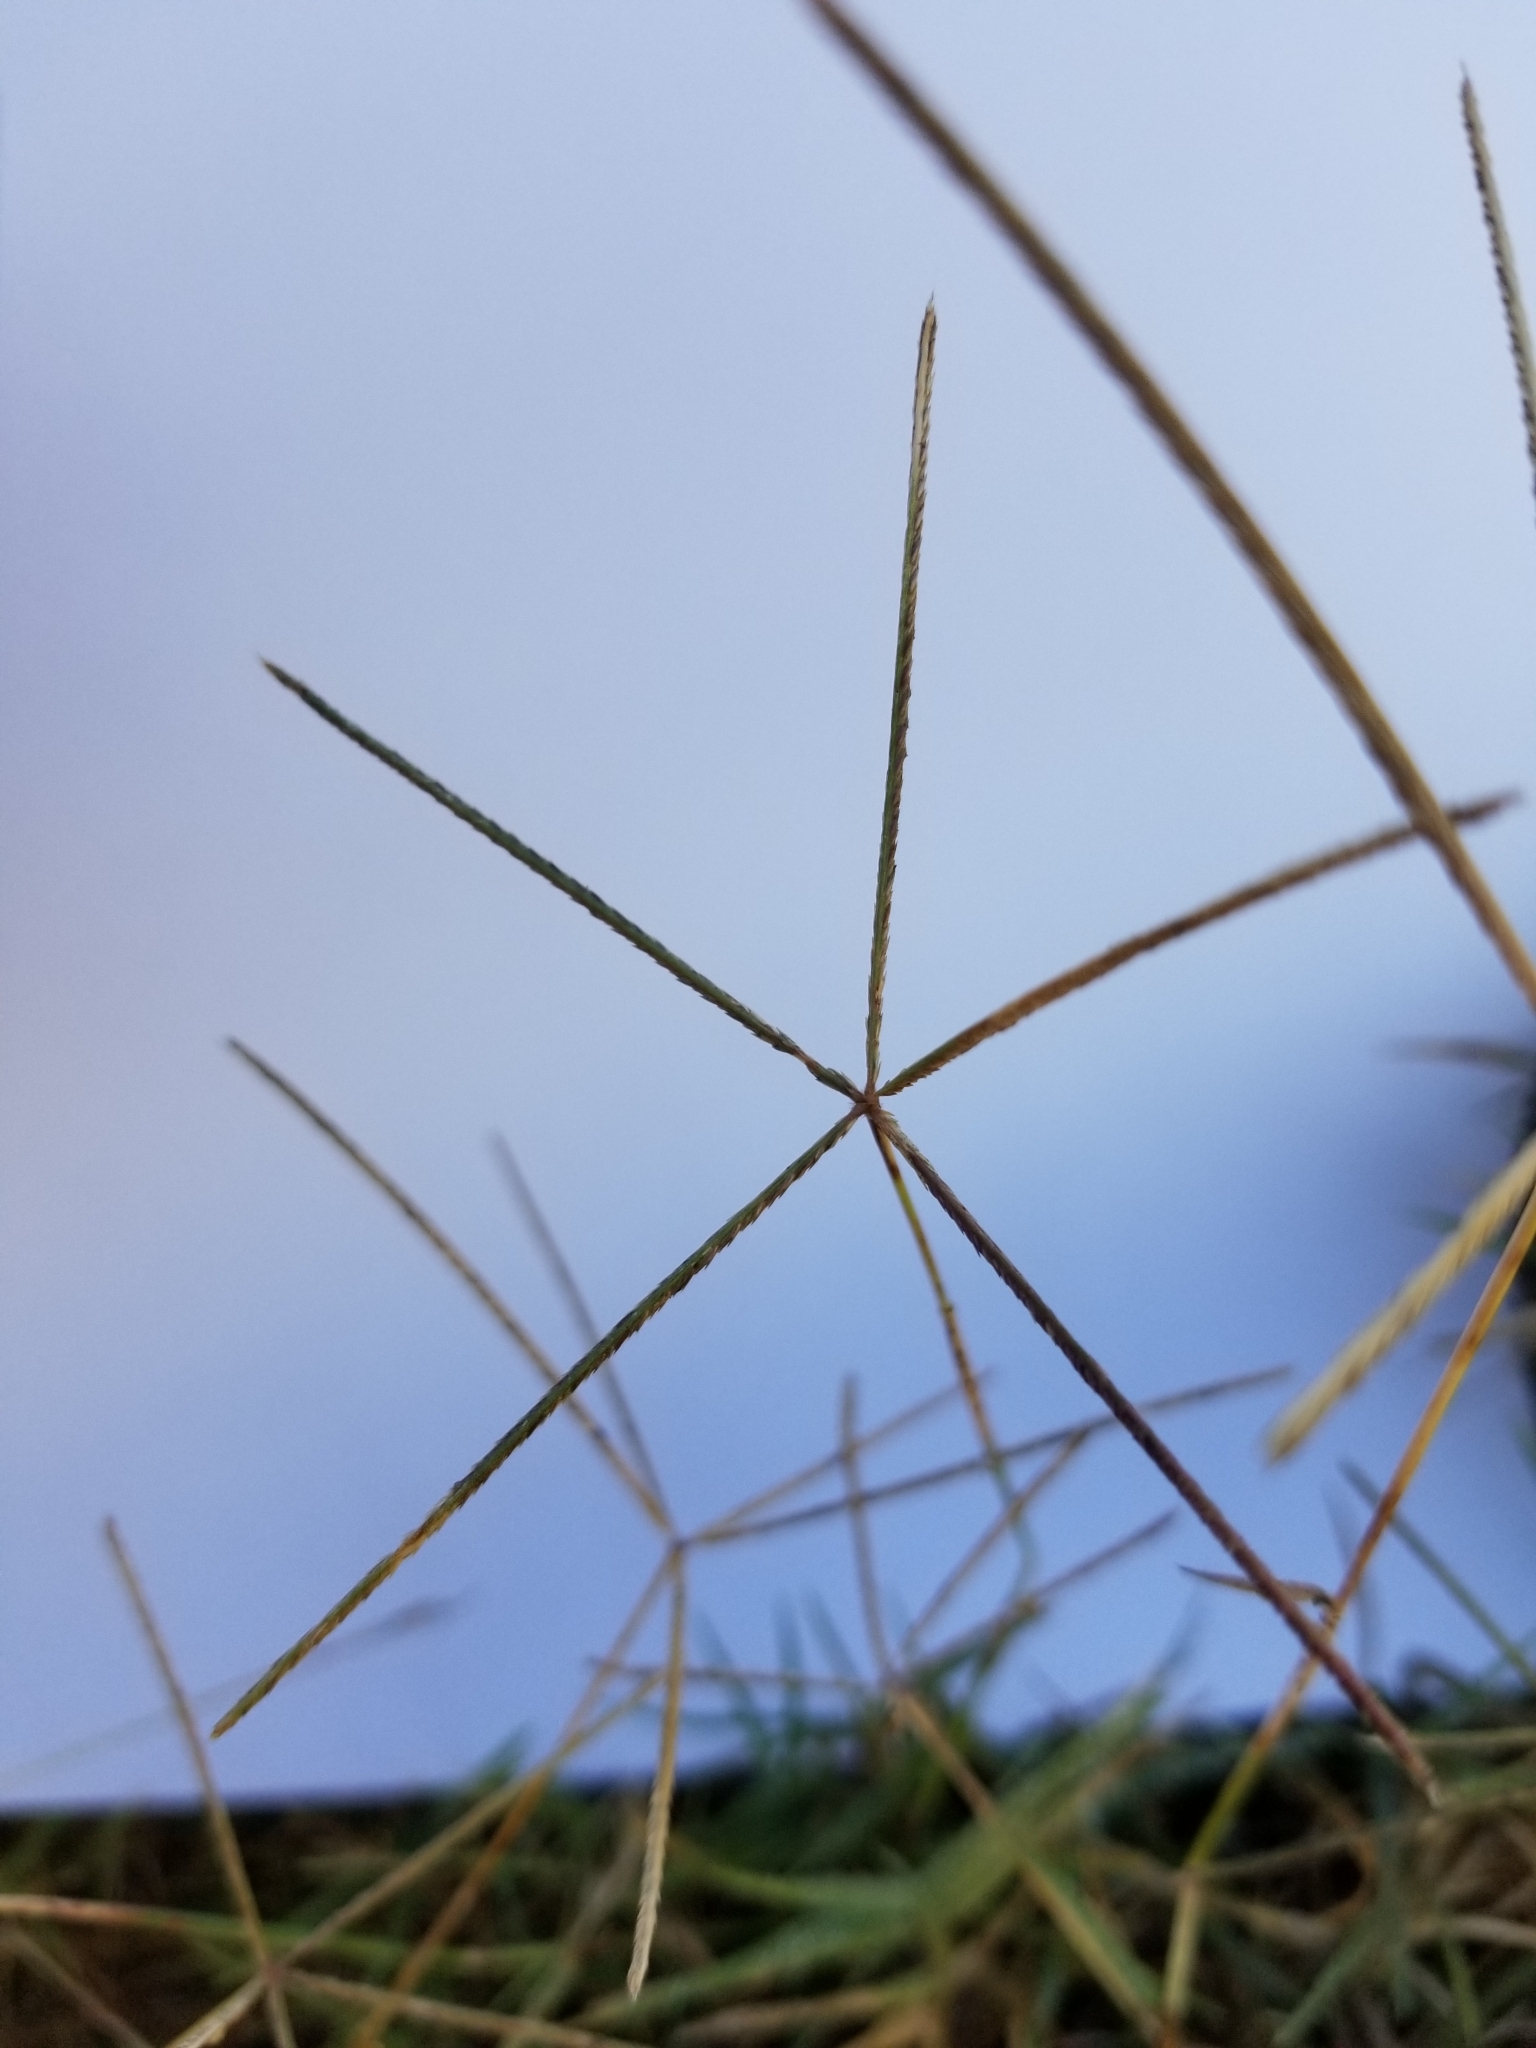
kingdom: Plantae
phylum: Tracheophyta
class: Liliopsida
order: Poales
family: Poaceae
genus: Cynodon
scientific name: Cynodon dactylon
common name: Bermuda grass
